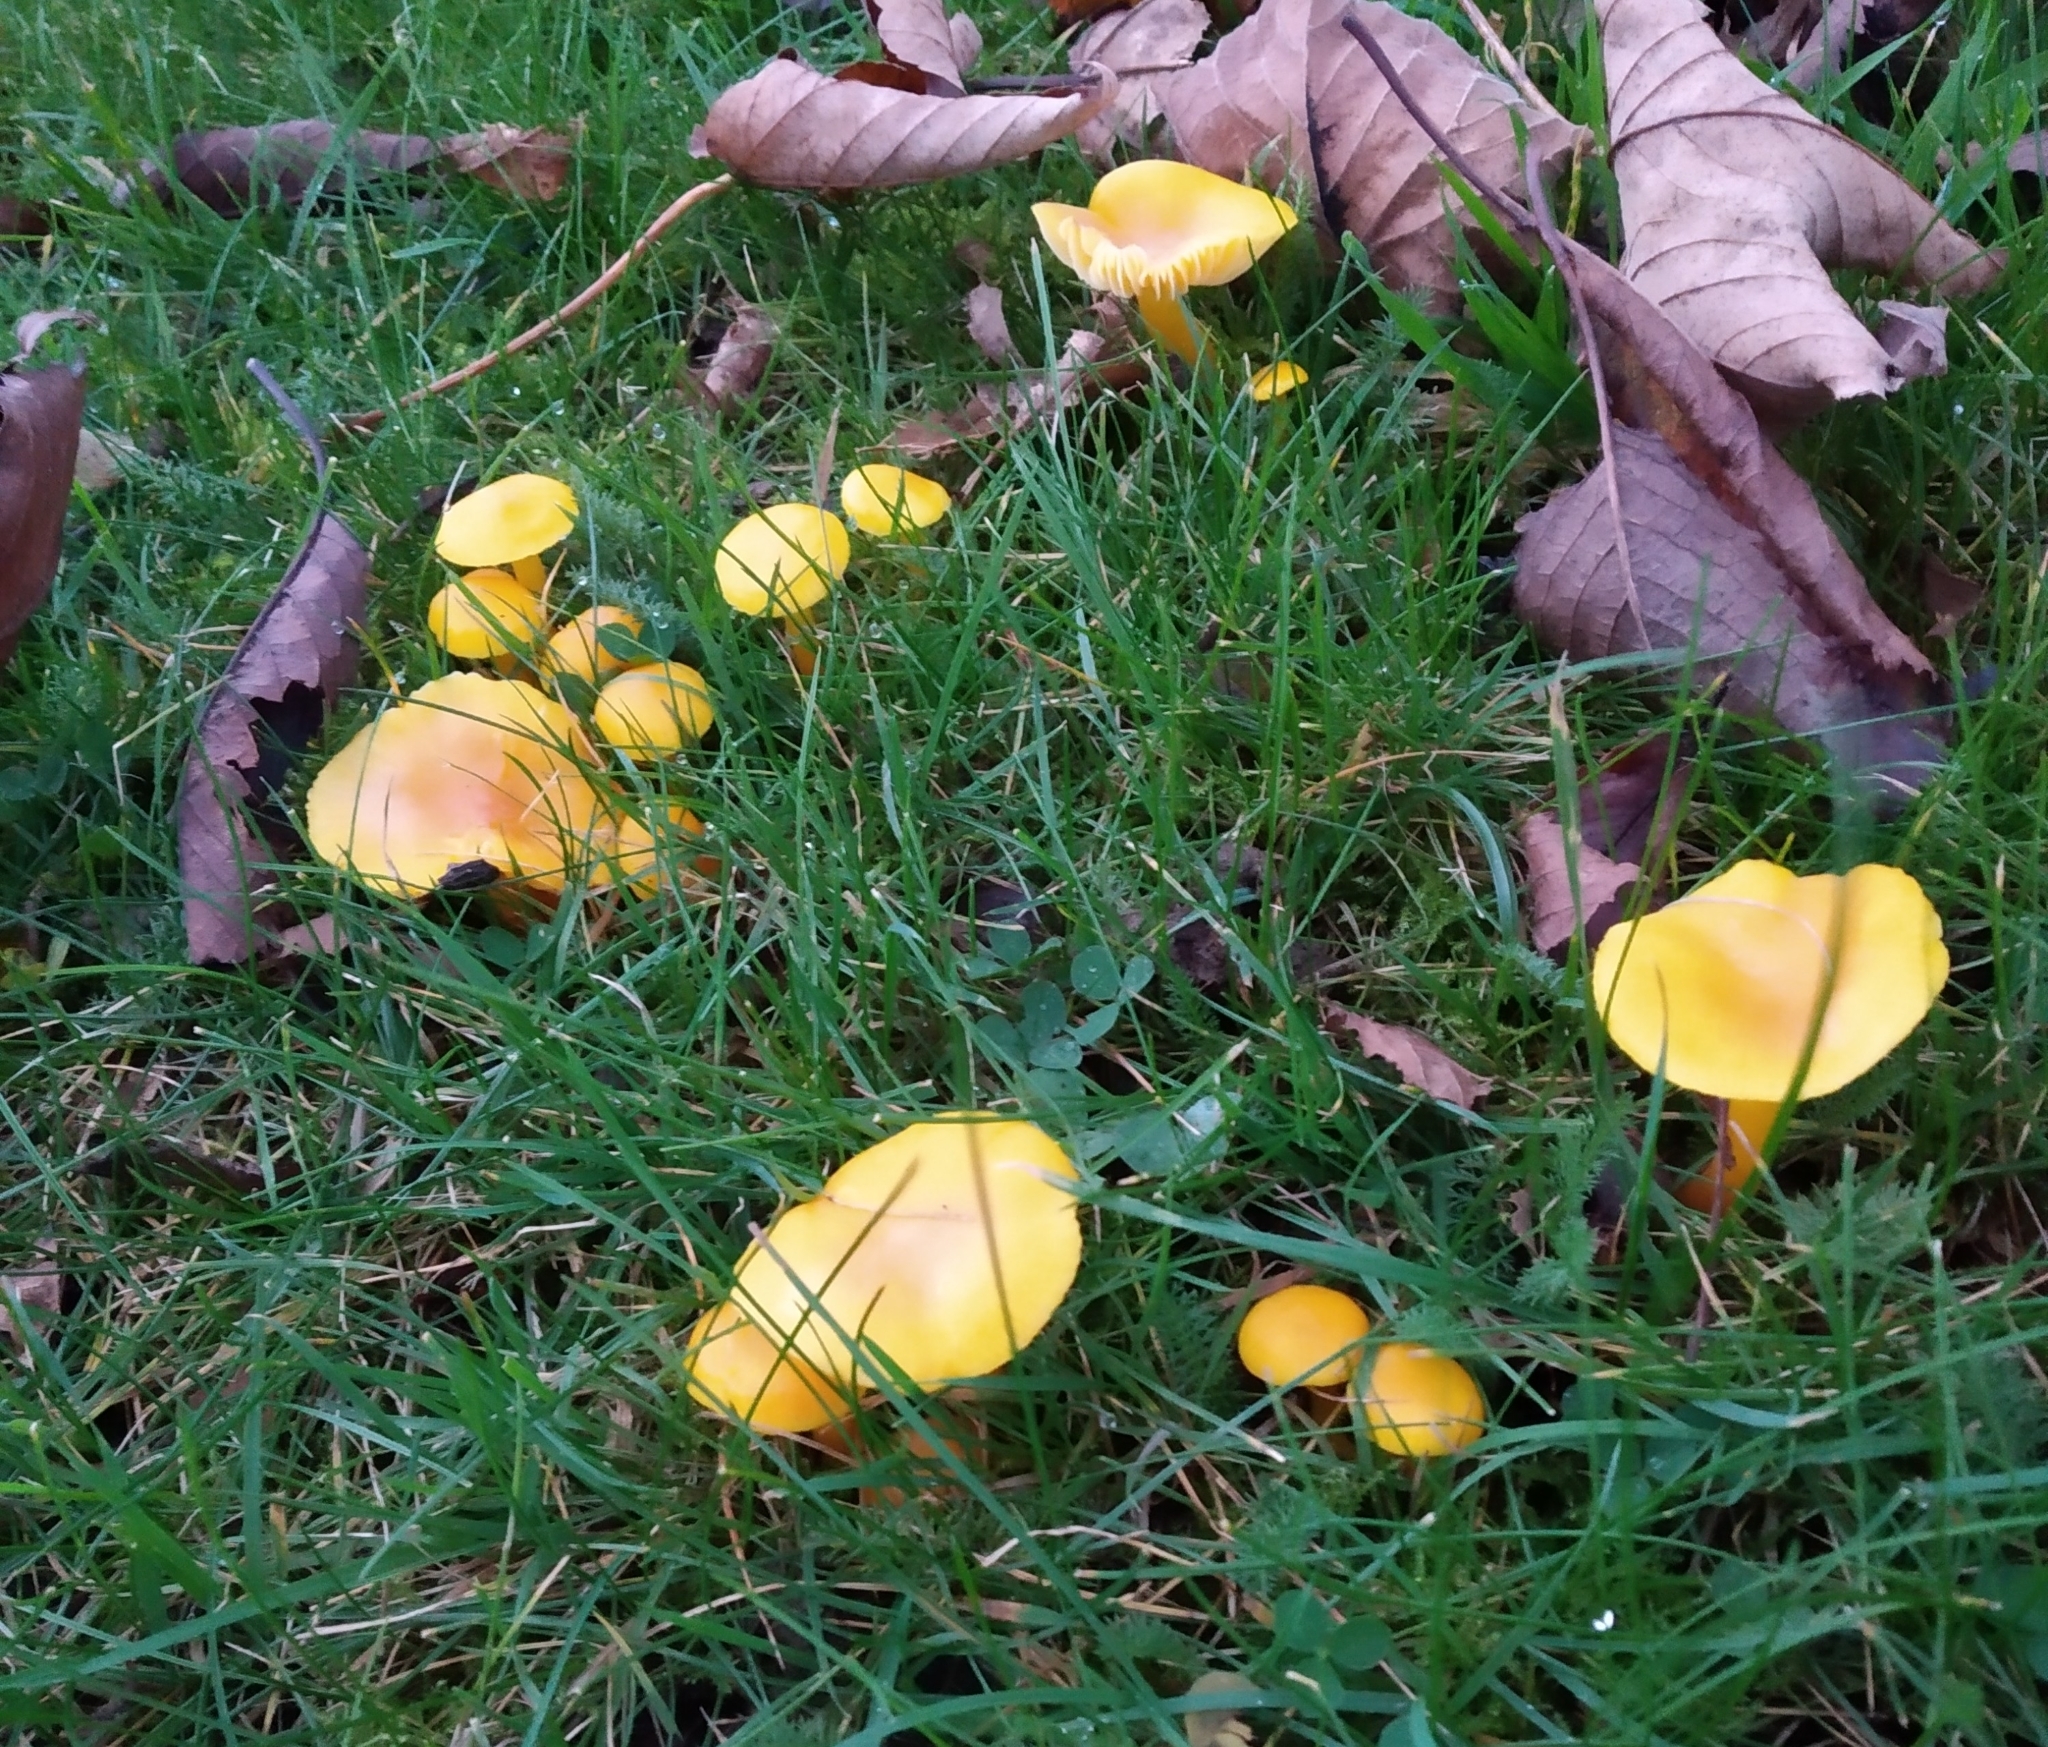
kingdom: Fungi
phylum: Basidiomycota
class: Agaricomycetes
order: Agaricales
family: Hygrophoraceae
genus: Hygrocybe
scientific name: Hygrocybe ceracea
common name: Butter waxcap
